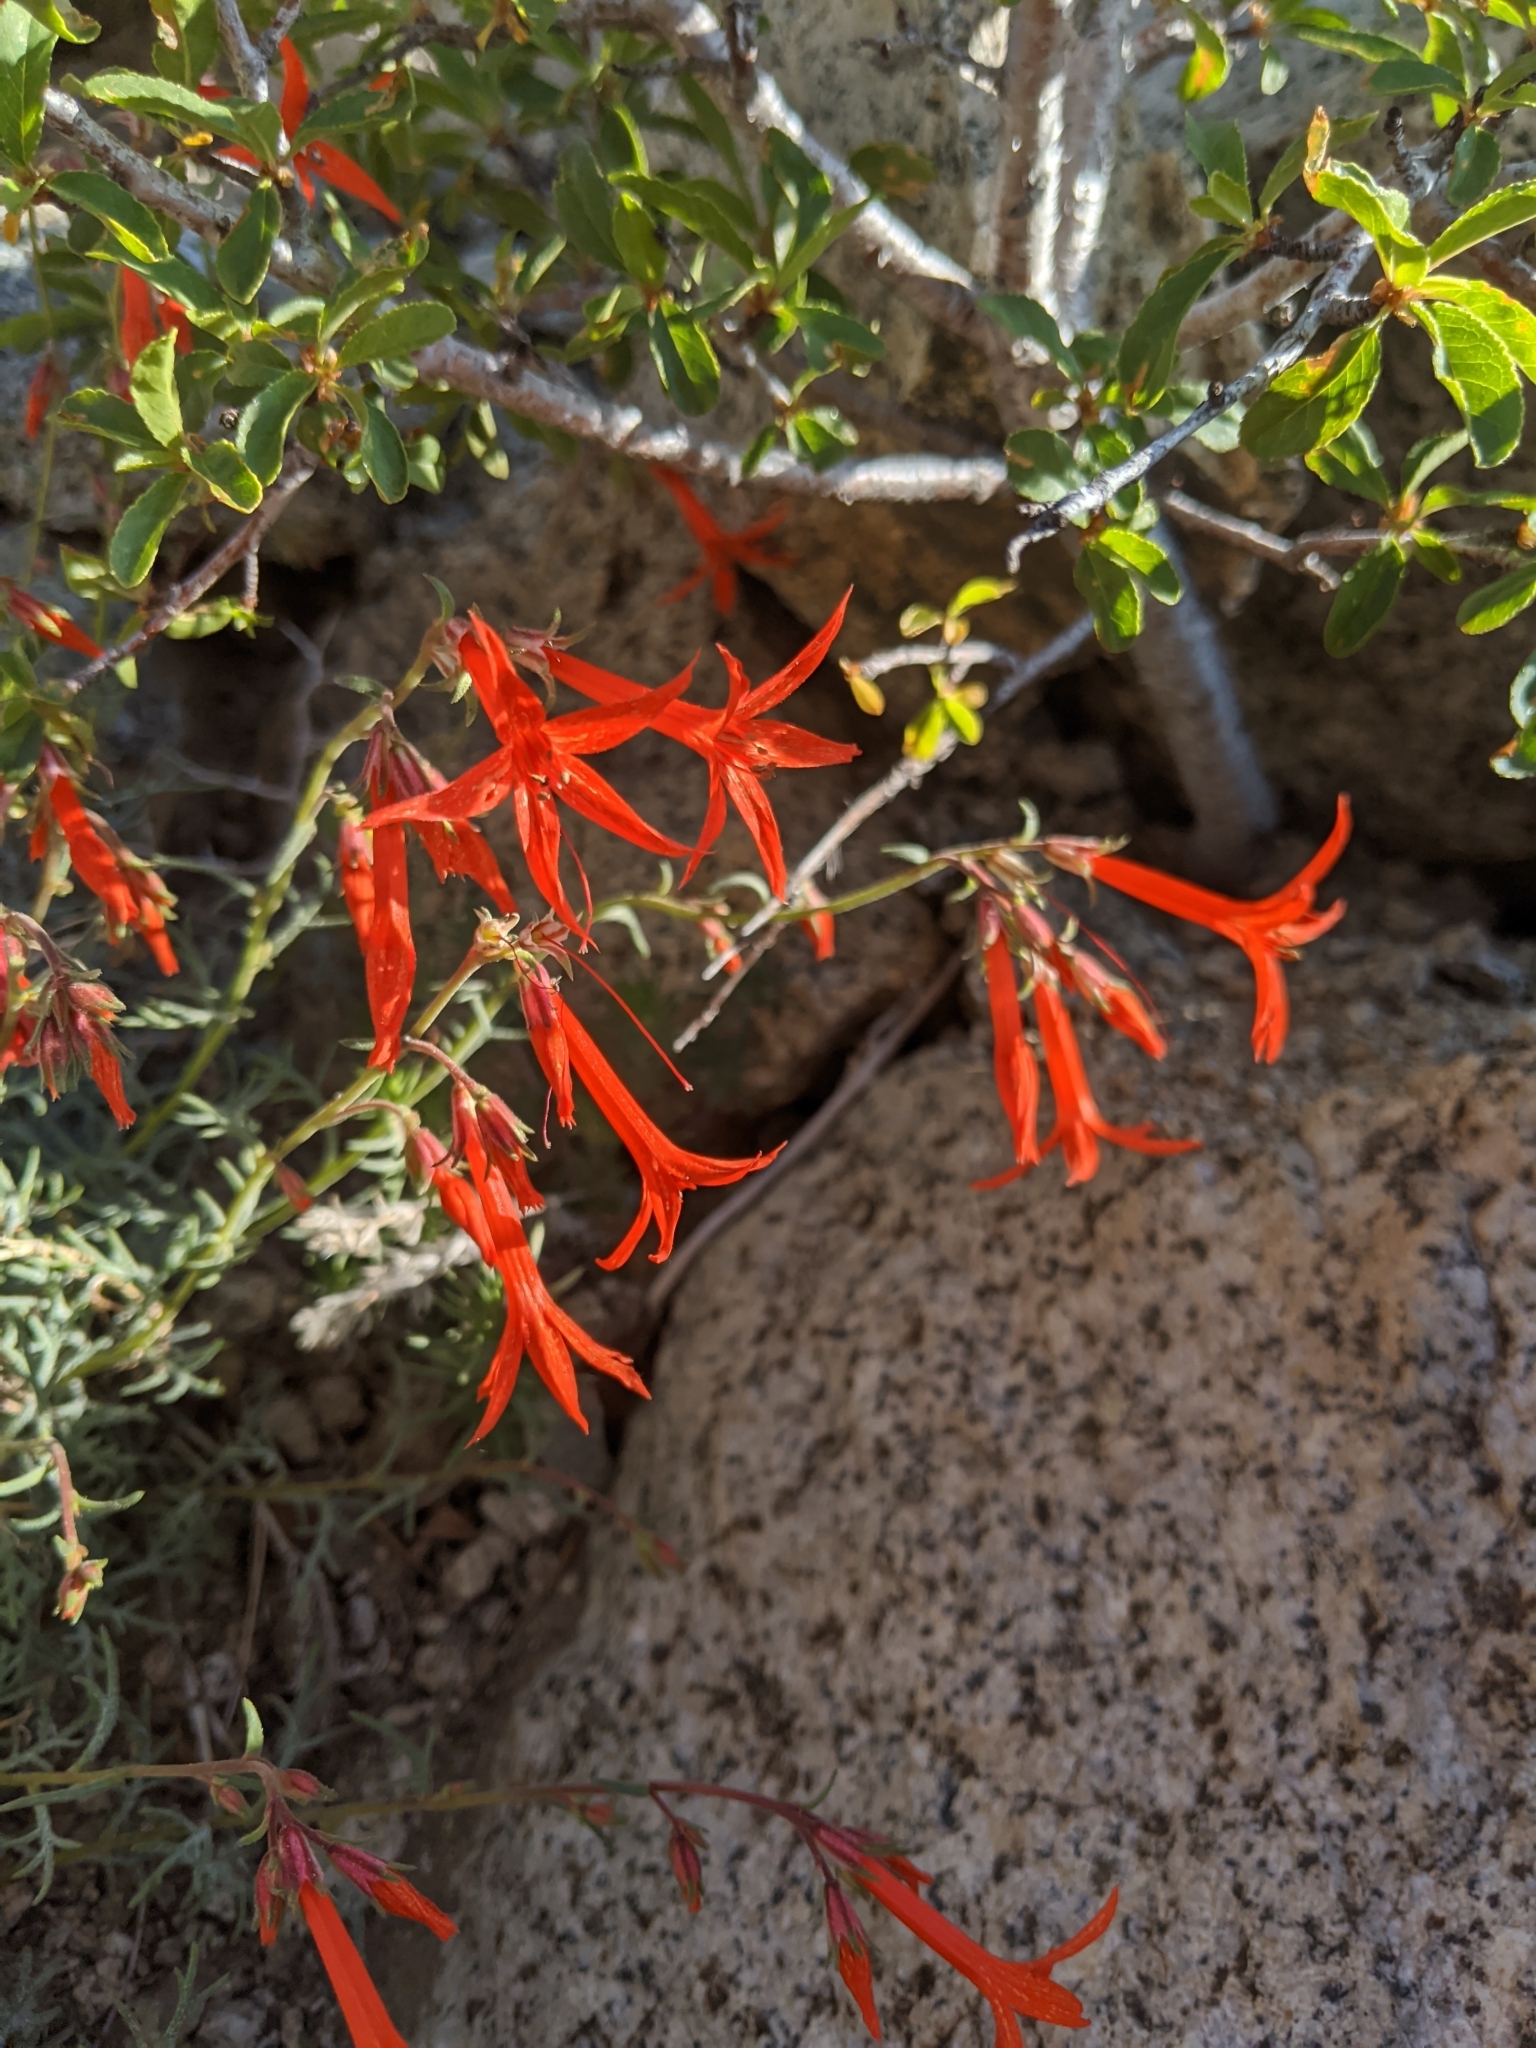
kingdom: Plantae
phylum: Tracheophyta
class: Magnoliopsida
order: Ericales
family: Polemoniaceae
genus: Ipomopsis
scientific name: Ipomopsis aggregata
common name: Scarlet gilia
